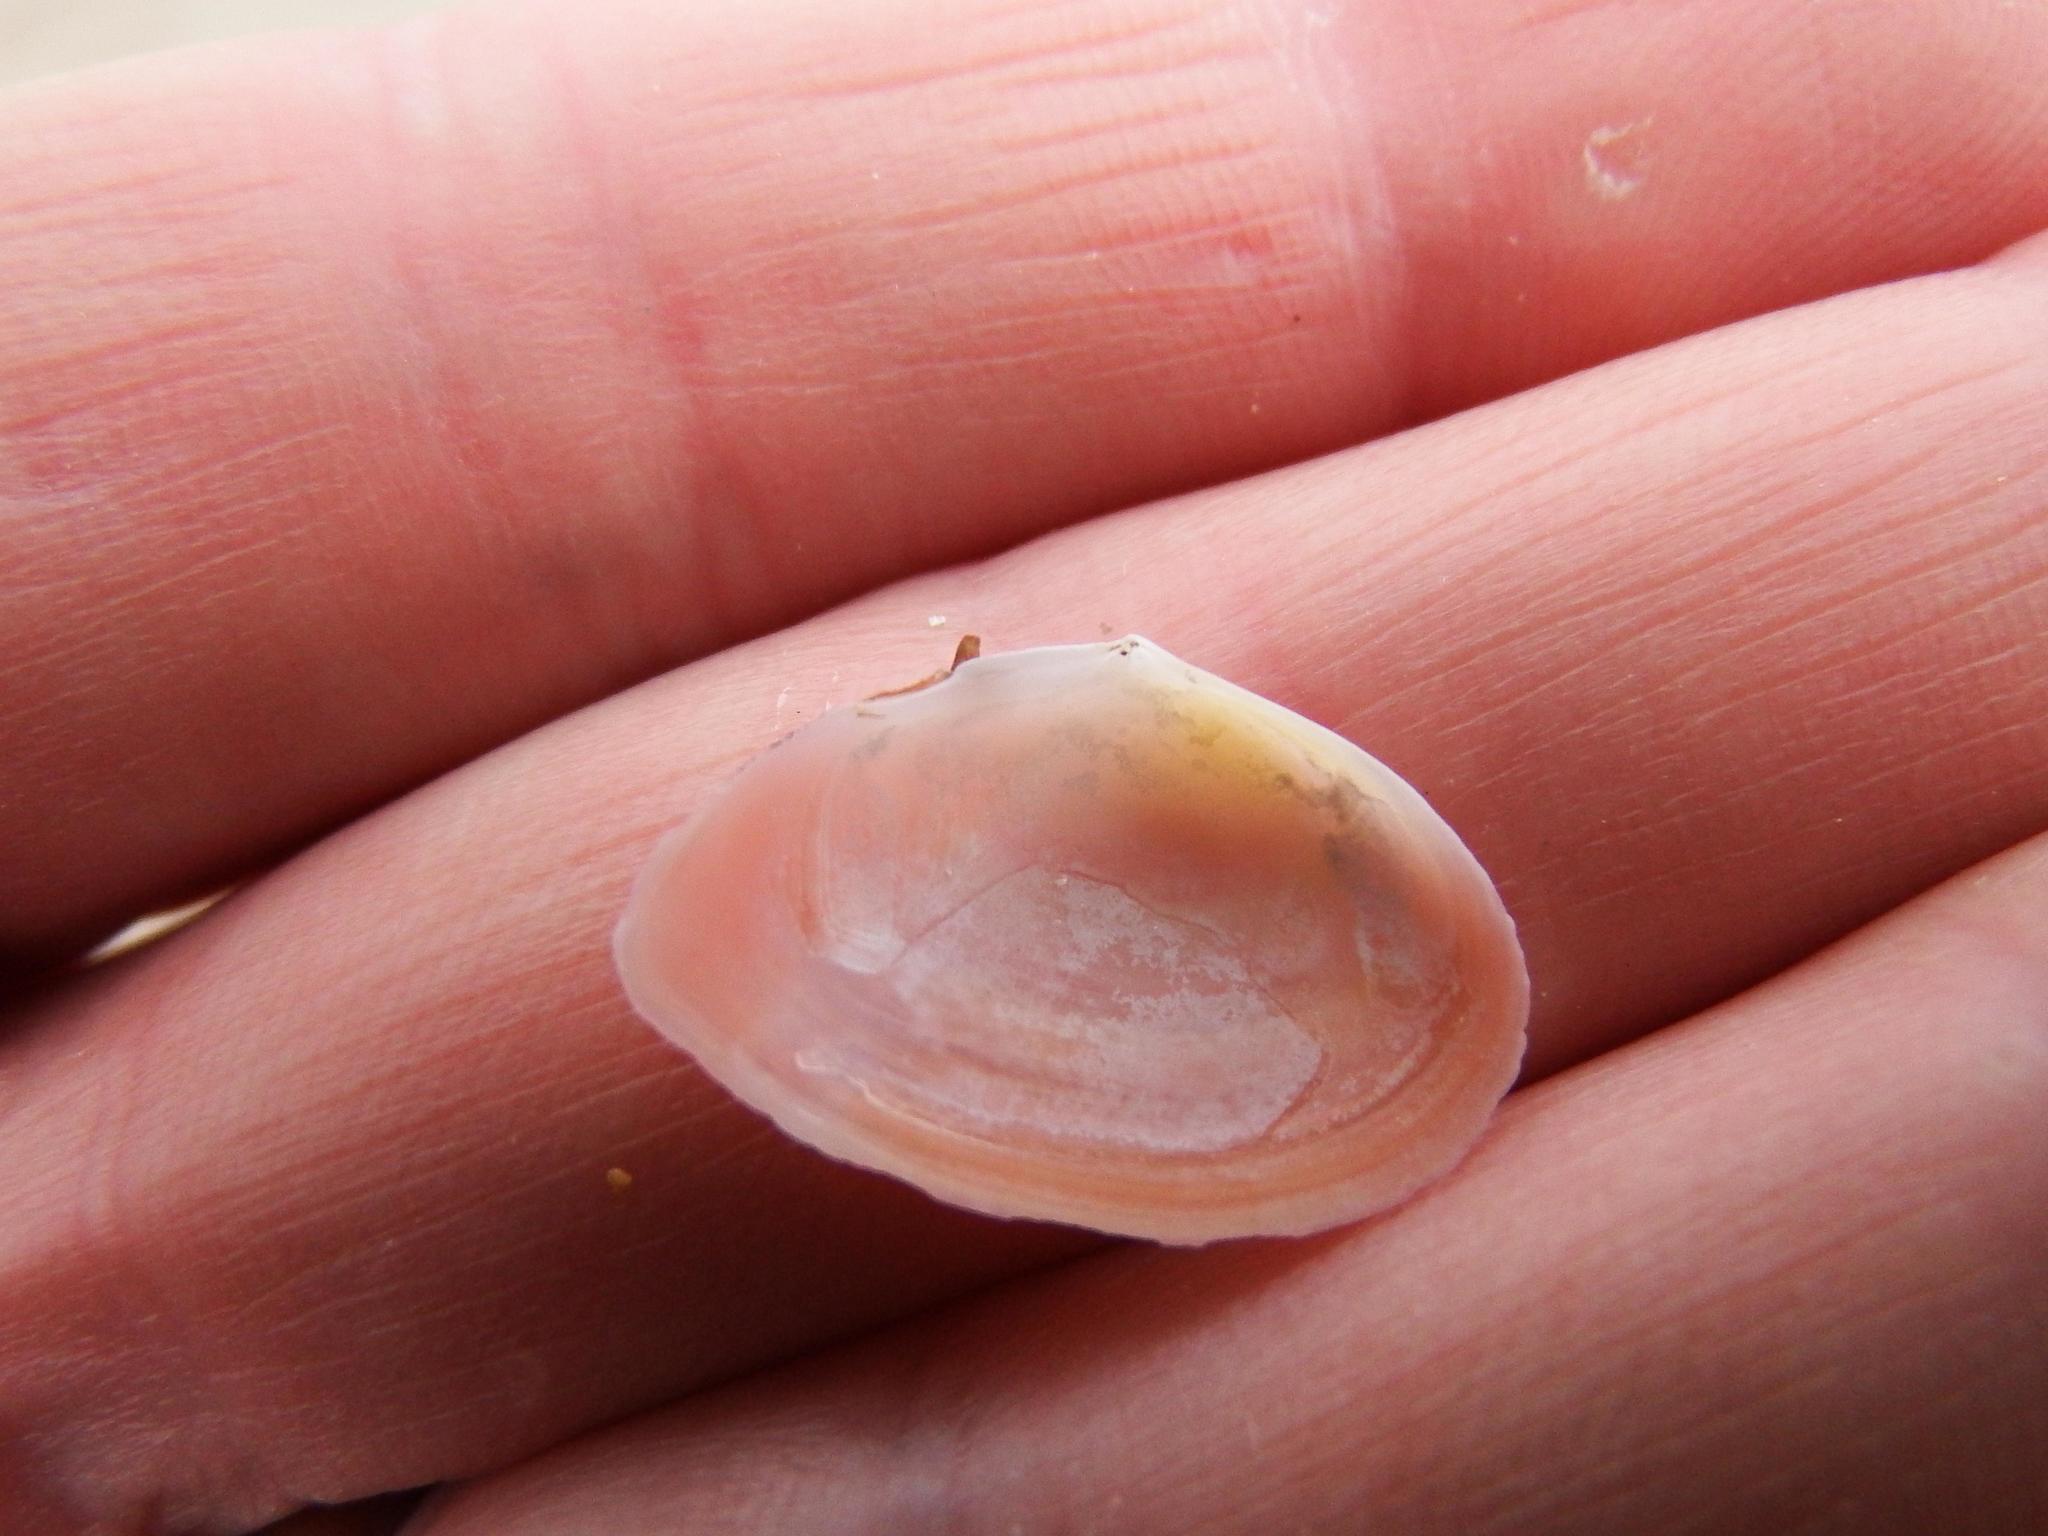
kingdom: Animalia
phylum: Mollusca
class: Bivalvia
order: Cardiida
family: Tellinidae
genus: Macomangulus
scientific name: Macomangulus tenuis
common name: Thin tellin
